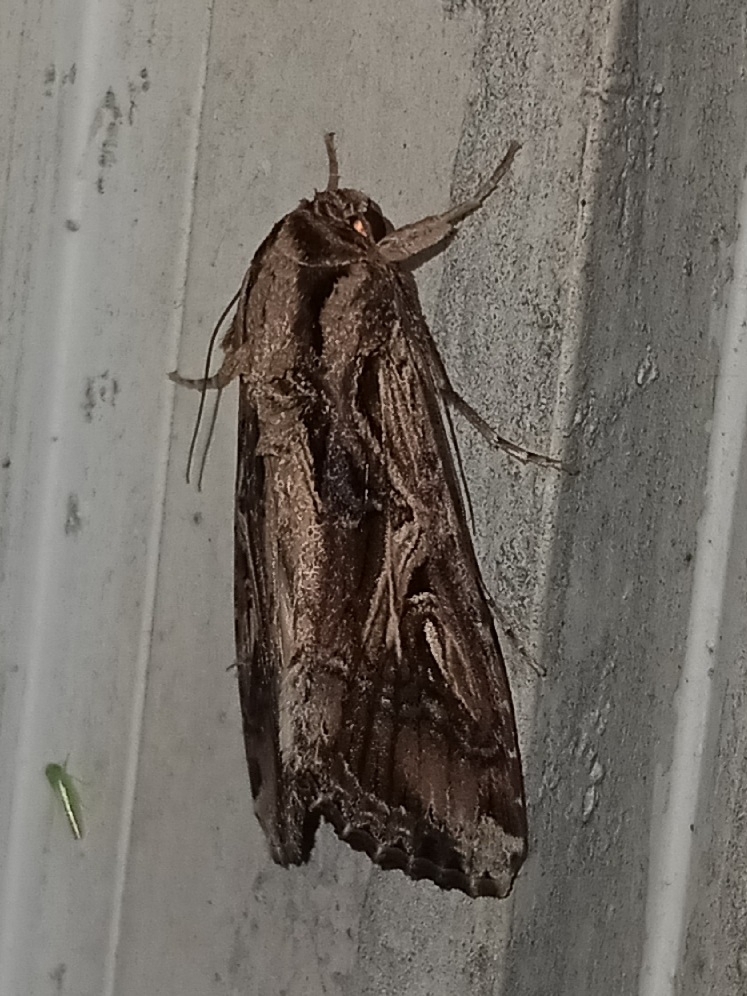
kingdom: Animalia
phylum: Arthropoda
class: Insecta
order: Lepidoptera
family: Noctuidae
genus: Spodoptera
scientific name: Spodoptera dolichos
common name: Sweetpotato armyworm
